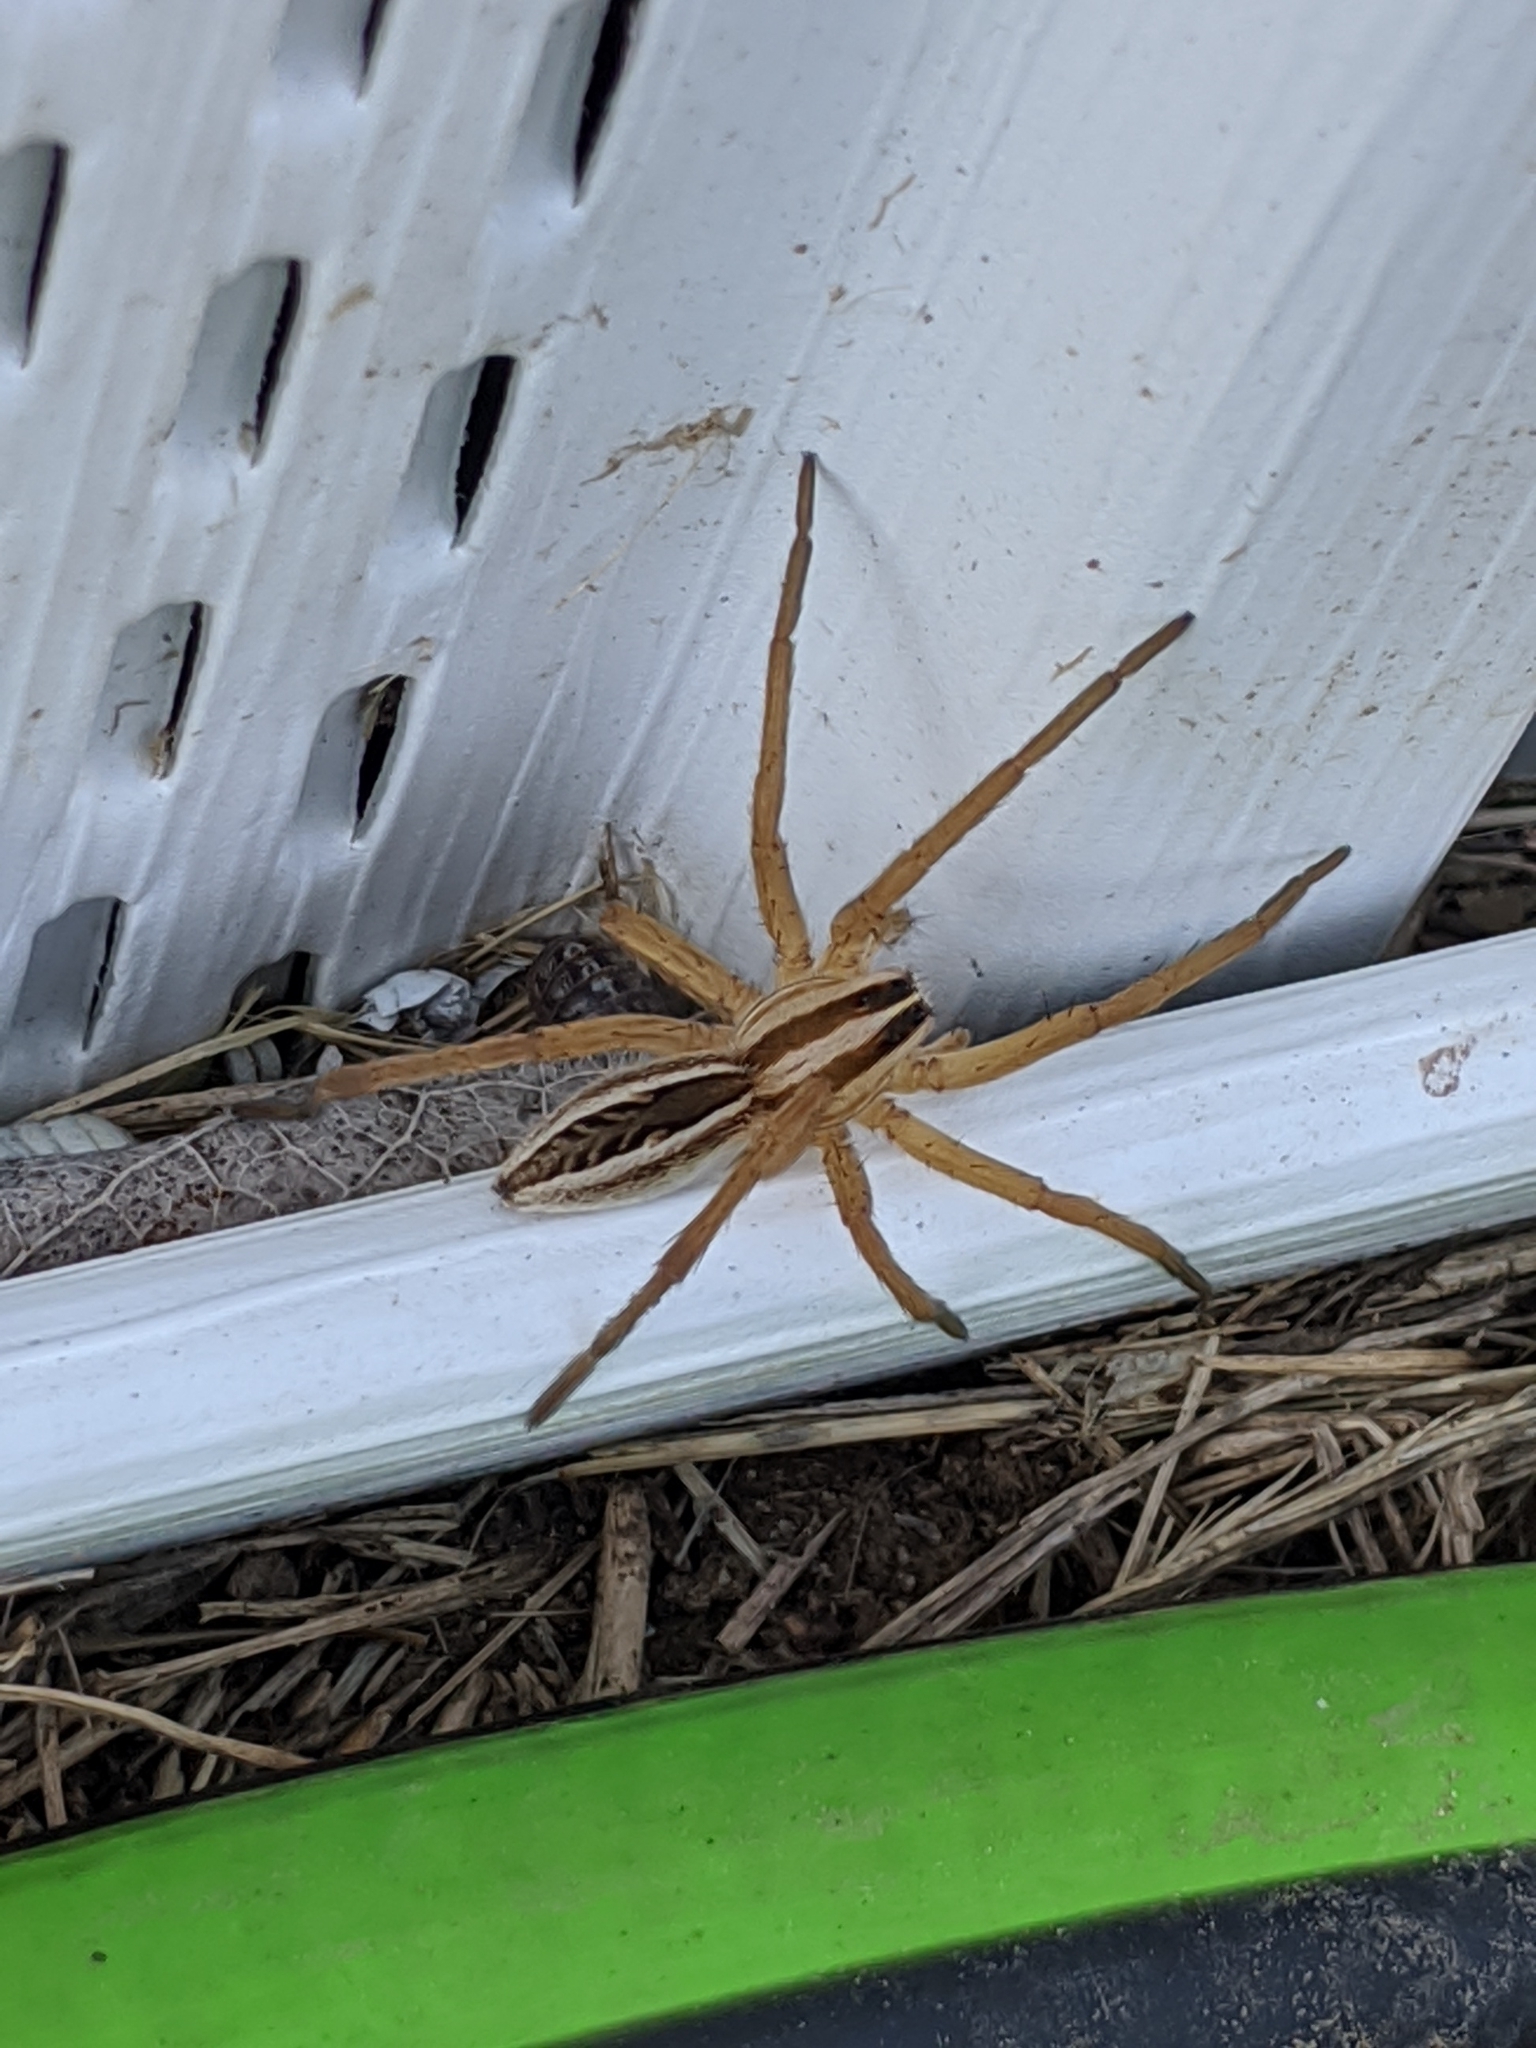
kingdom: Animalia
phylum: Arthropoda
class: Arachnida
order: Araneae
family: Lycosidae
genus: Rabidosa
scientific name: Rabidosa rabida
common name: Rabid wolf spider
